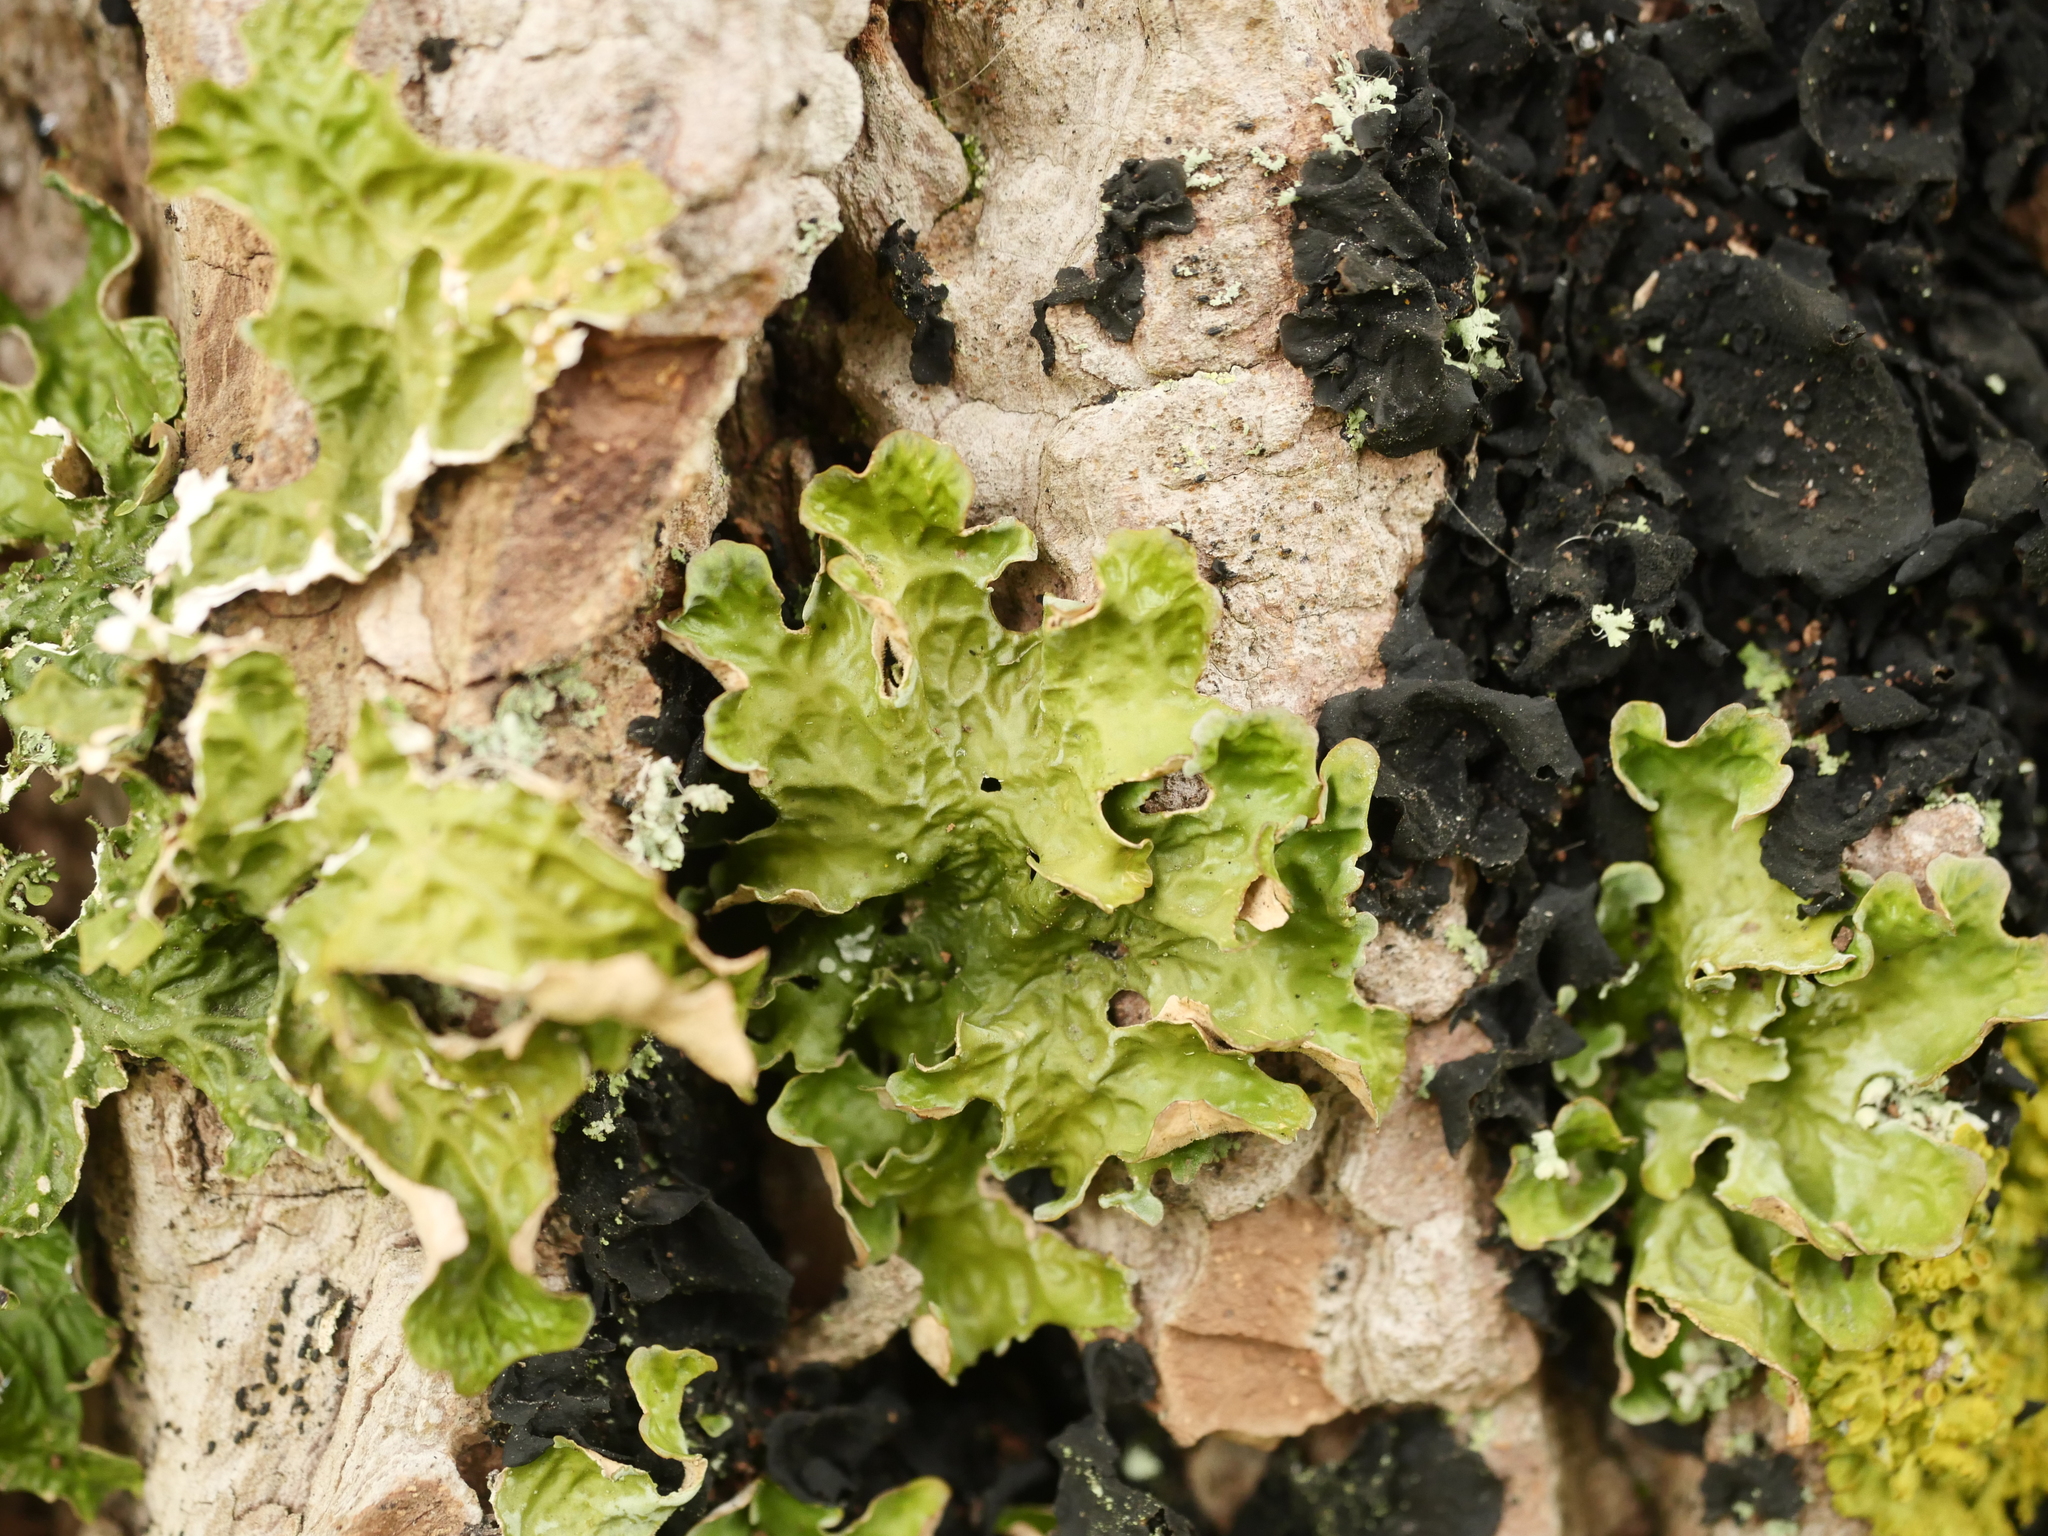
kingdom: Fungi
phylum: Ascomycota
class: Lecanoromycetes
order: Peltigerales
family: Lobariaceae
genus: Lobaria
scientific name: Lobaria pulmonaria
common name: Lungwort
